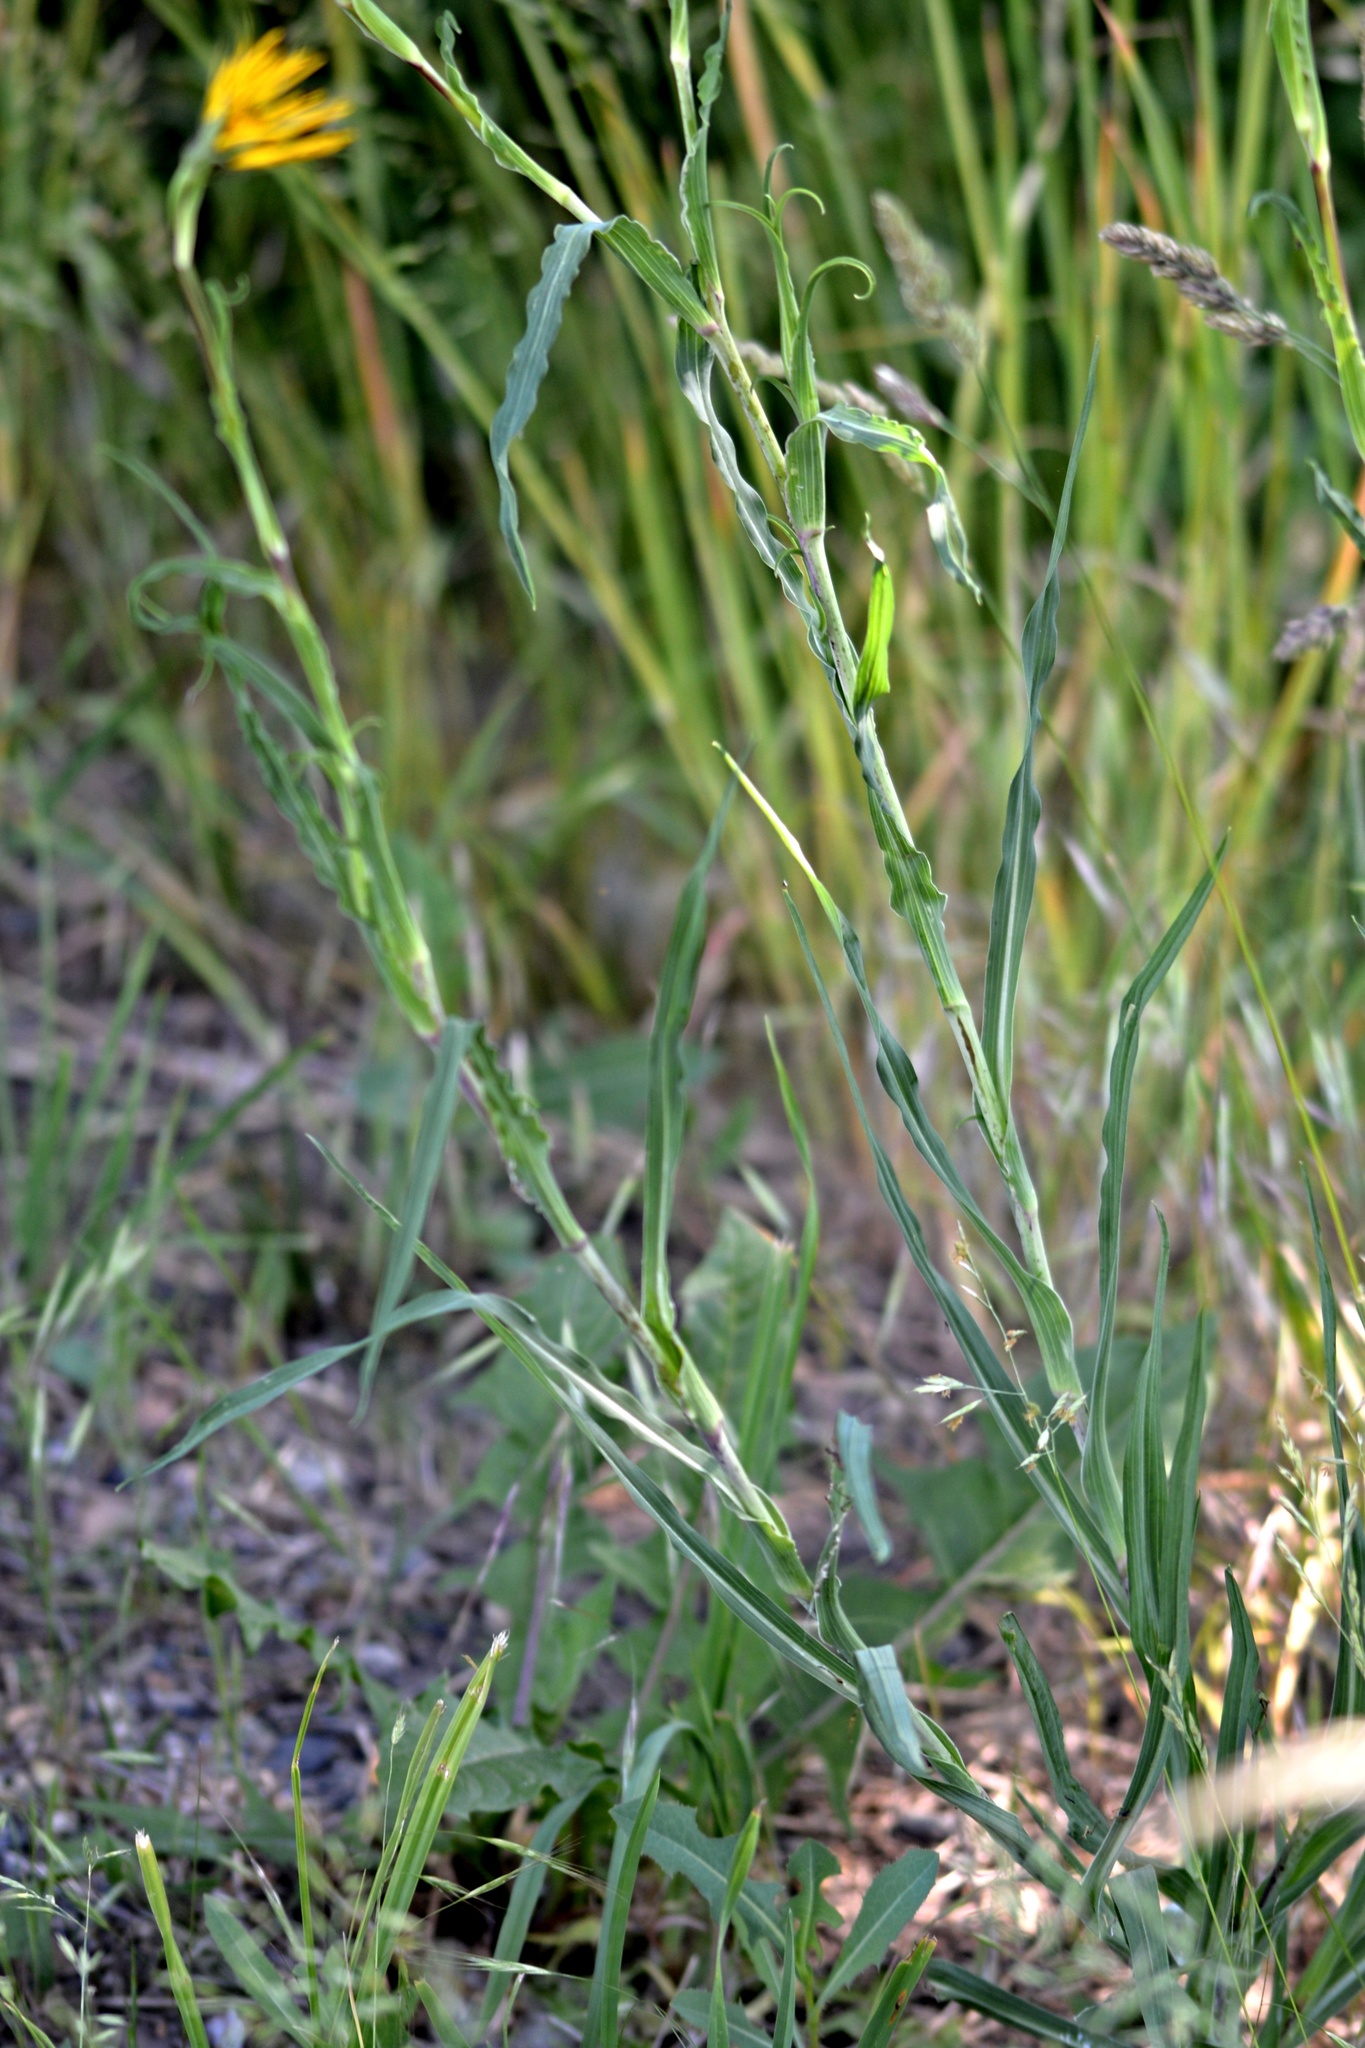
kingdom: Plantae
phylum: Tracheophyta
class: Magnoliopsida
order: Asterales
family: Asteraceae
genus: Tragopogon
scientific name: Tragopogon orientalis
